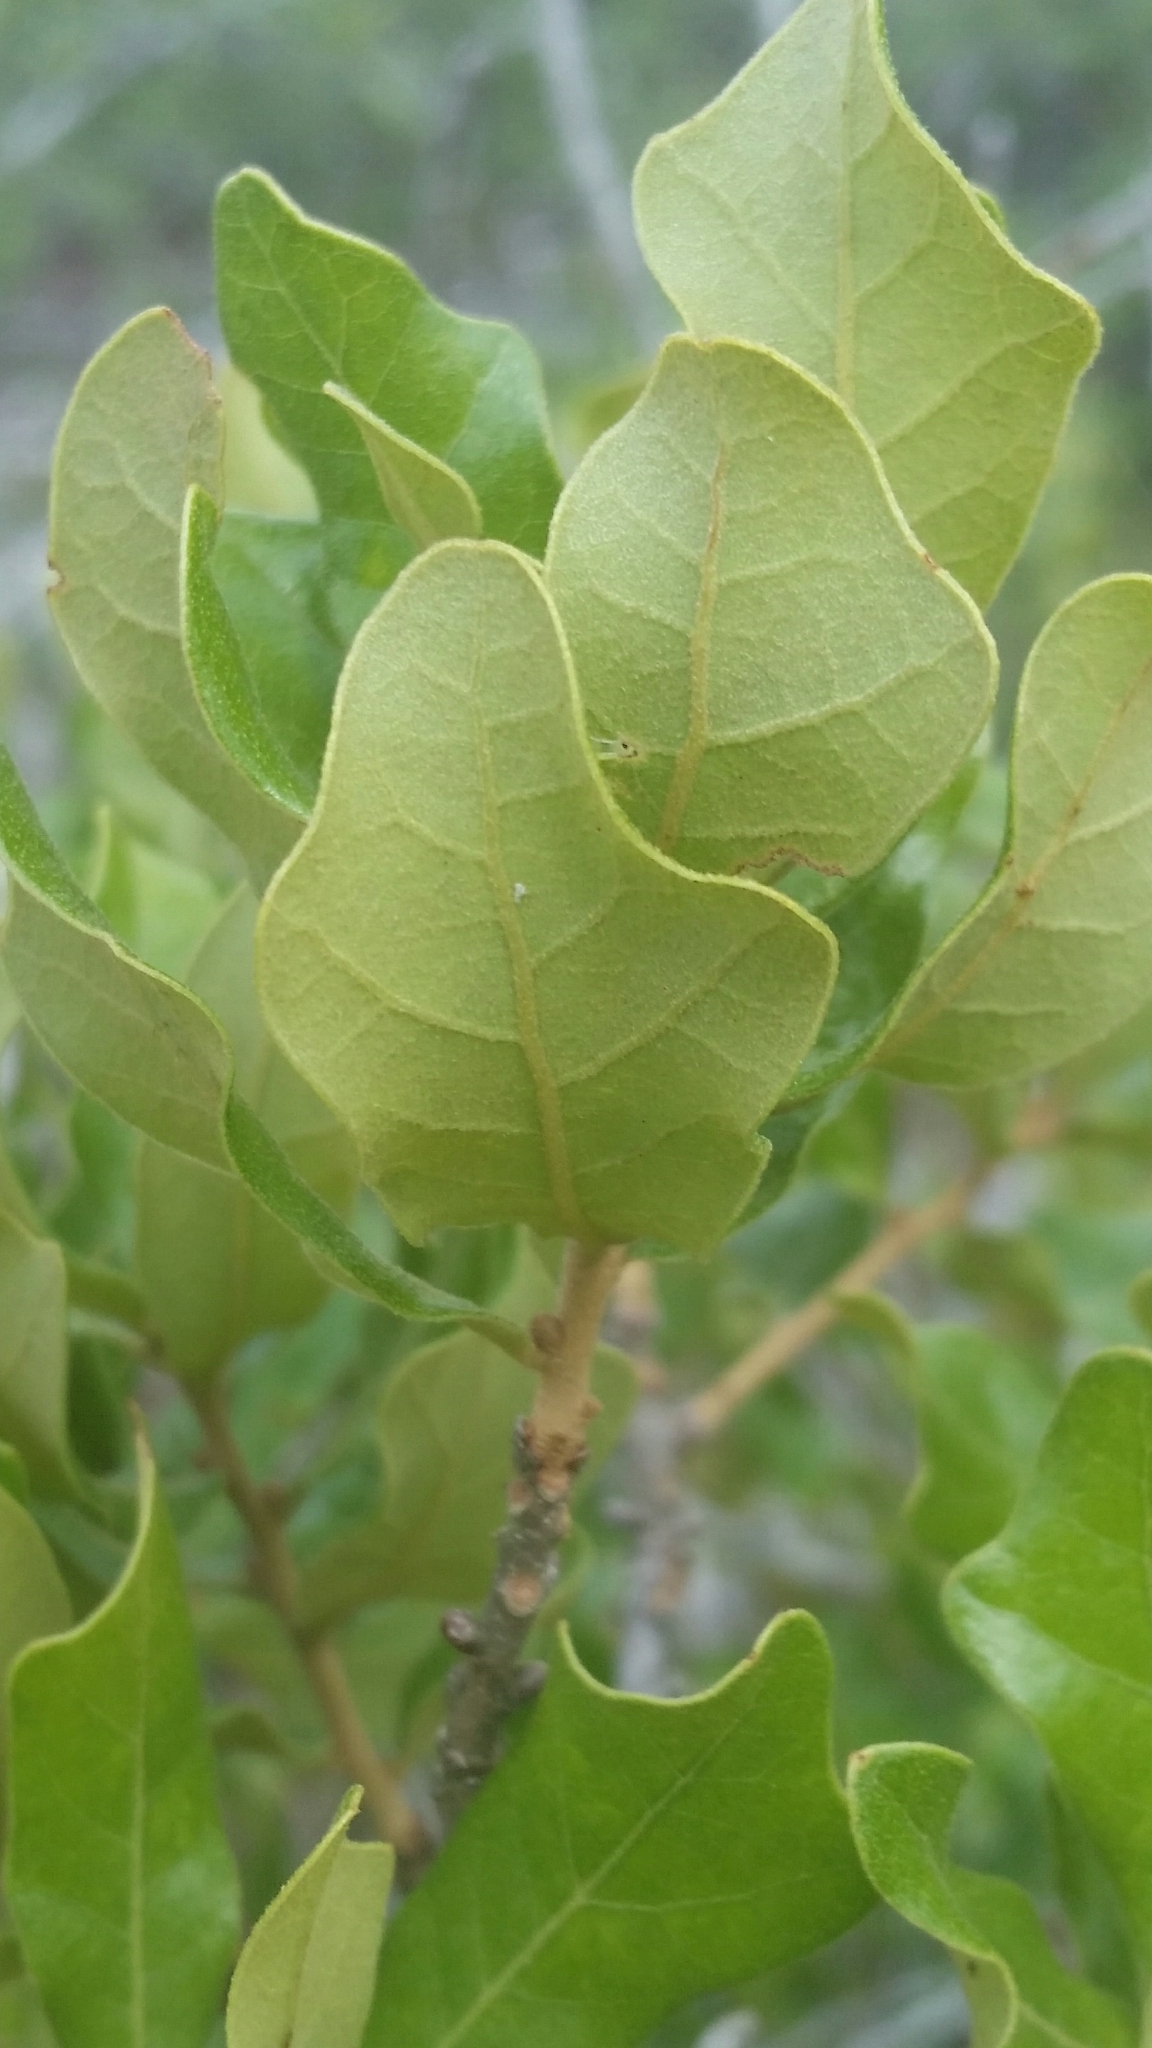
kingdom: Plantae
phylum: Tracheophyta
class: Magnoliopsida
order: Fagales
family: Fagaceae
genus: Quercus
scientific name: Quercus chapmanii
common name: Chapman oak
